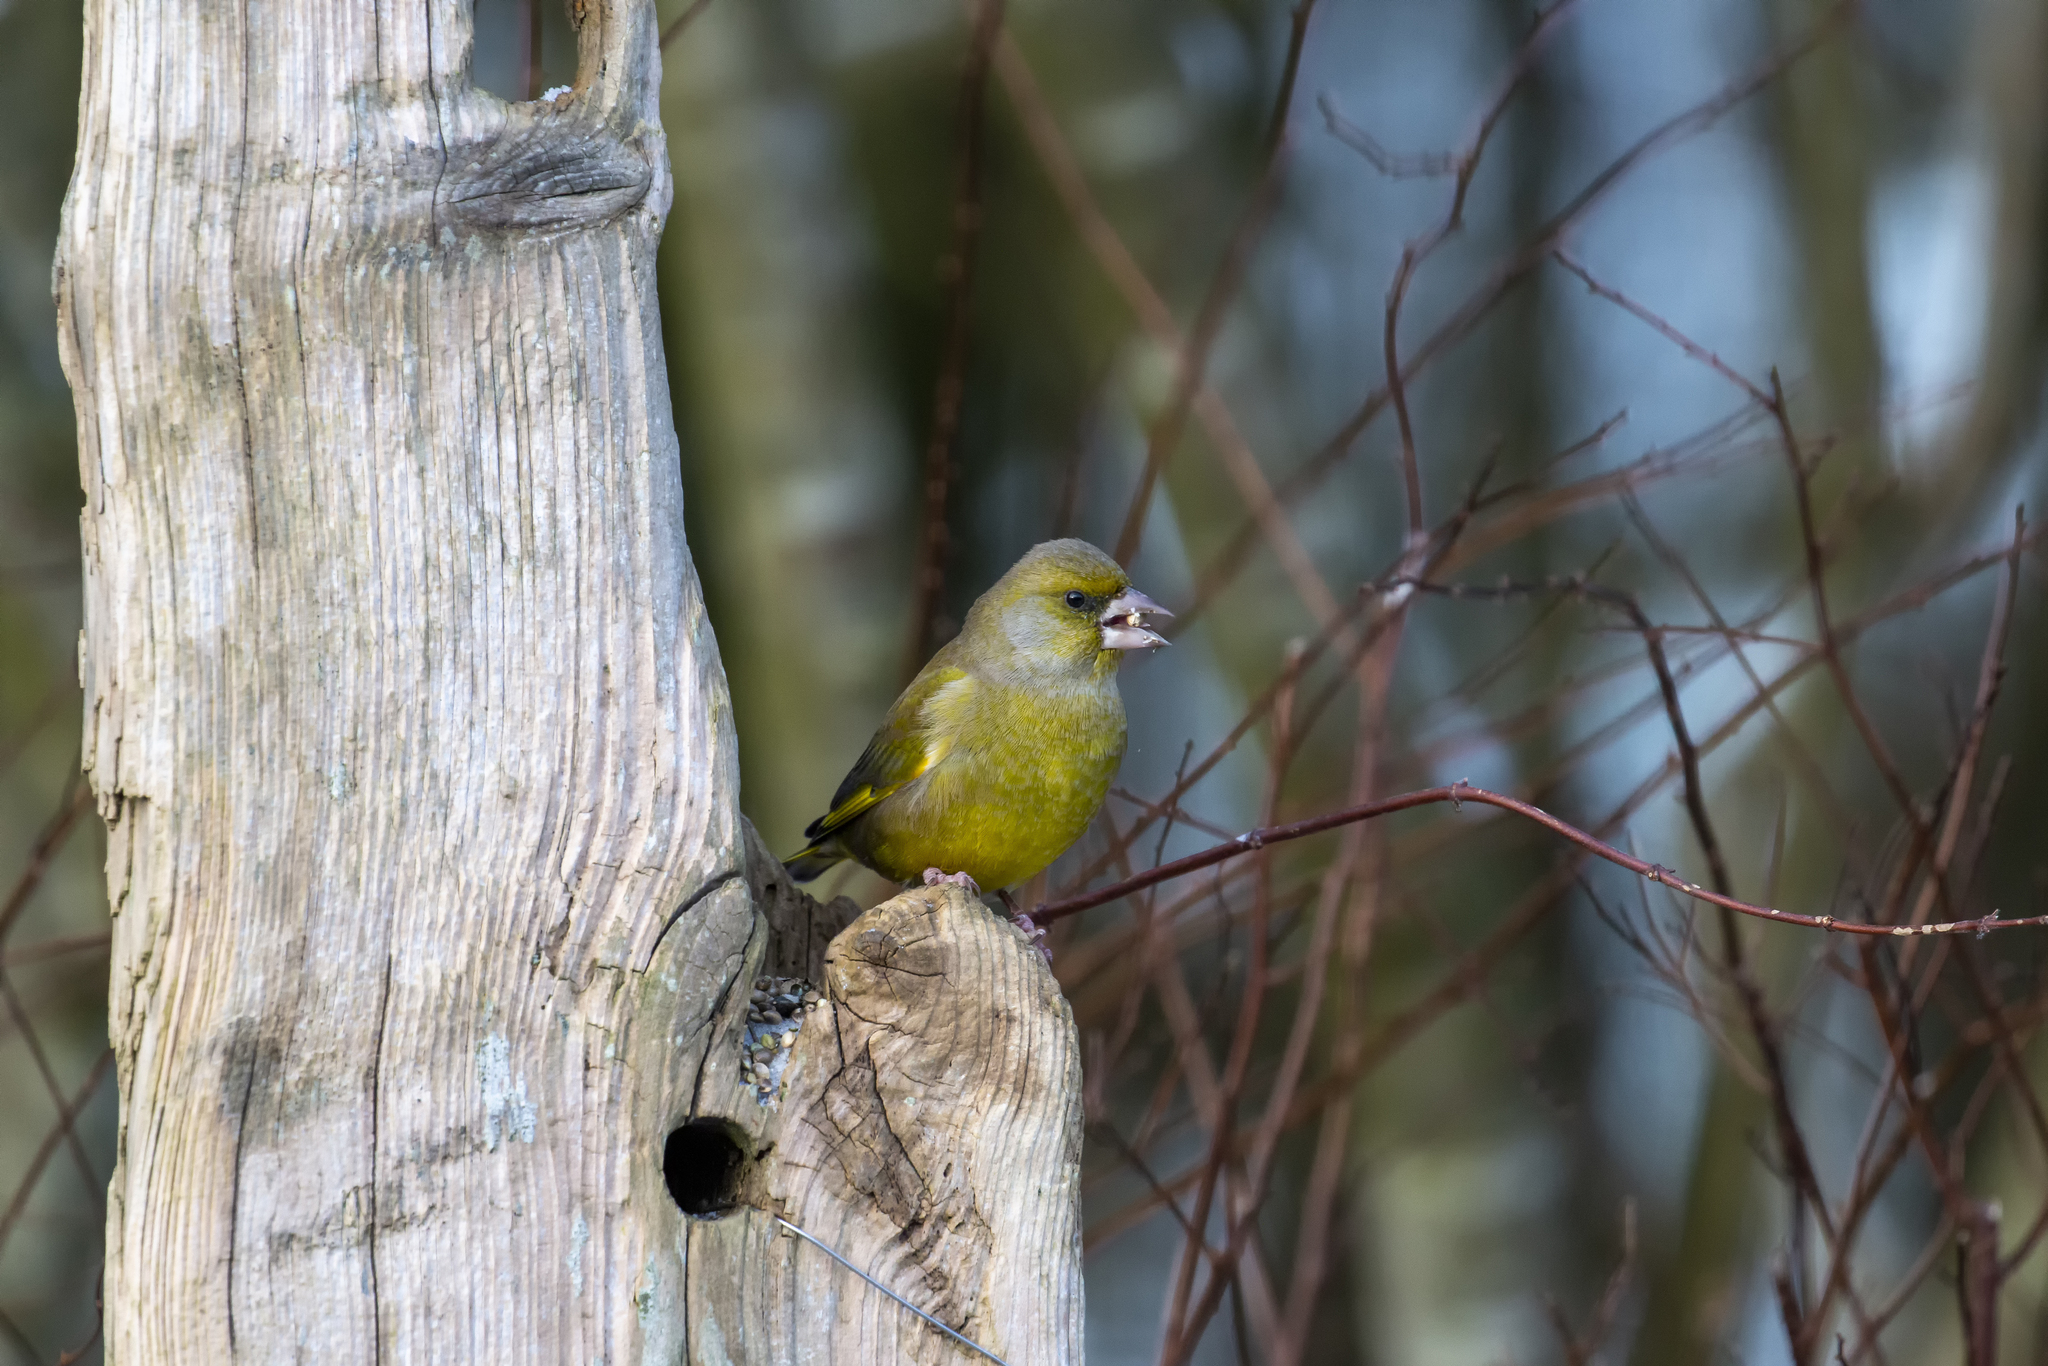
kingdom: Plantae
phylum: Tracheophyta
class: Liliopsida
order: Poales
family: Poaceae
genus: Chloris
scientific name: Chloris chloris
